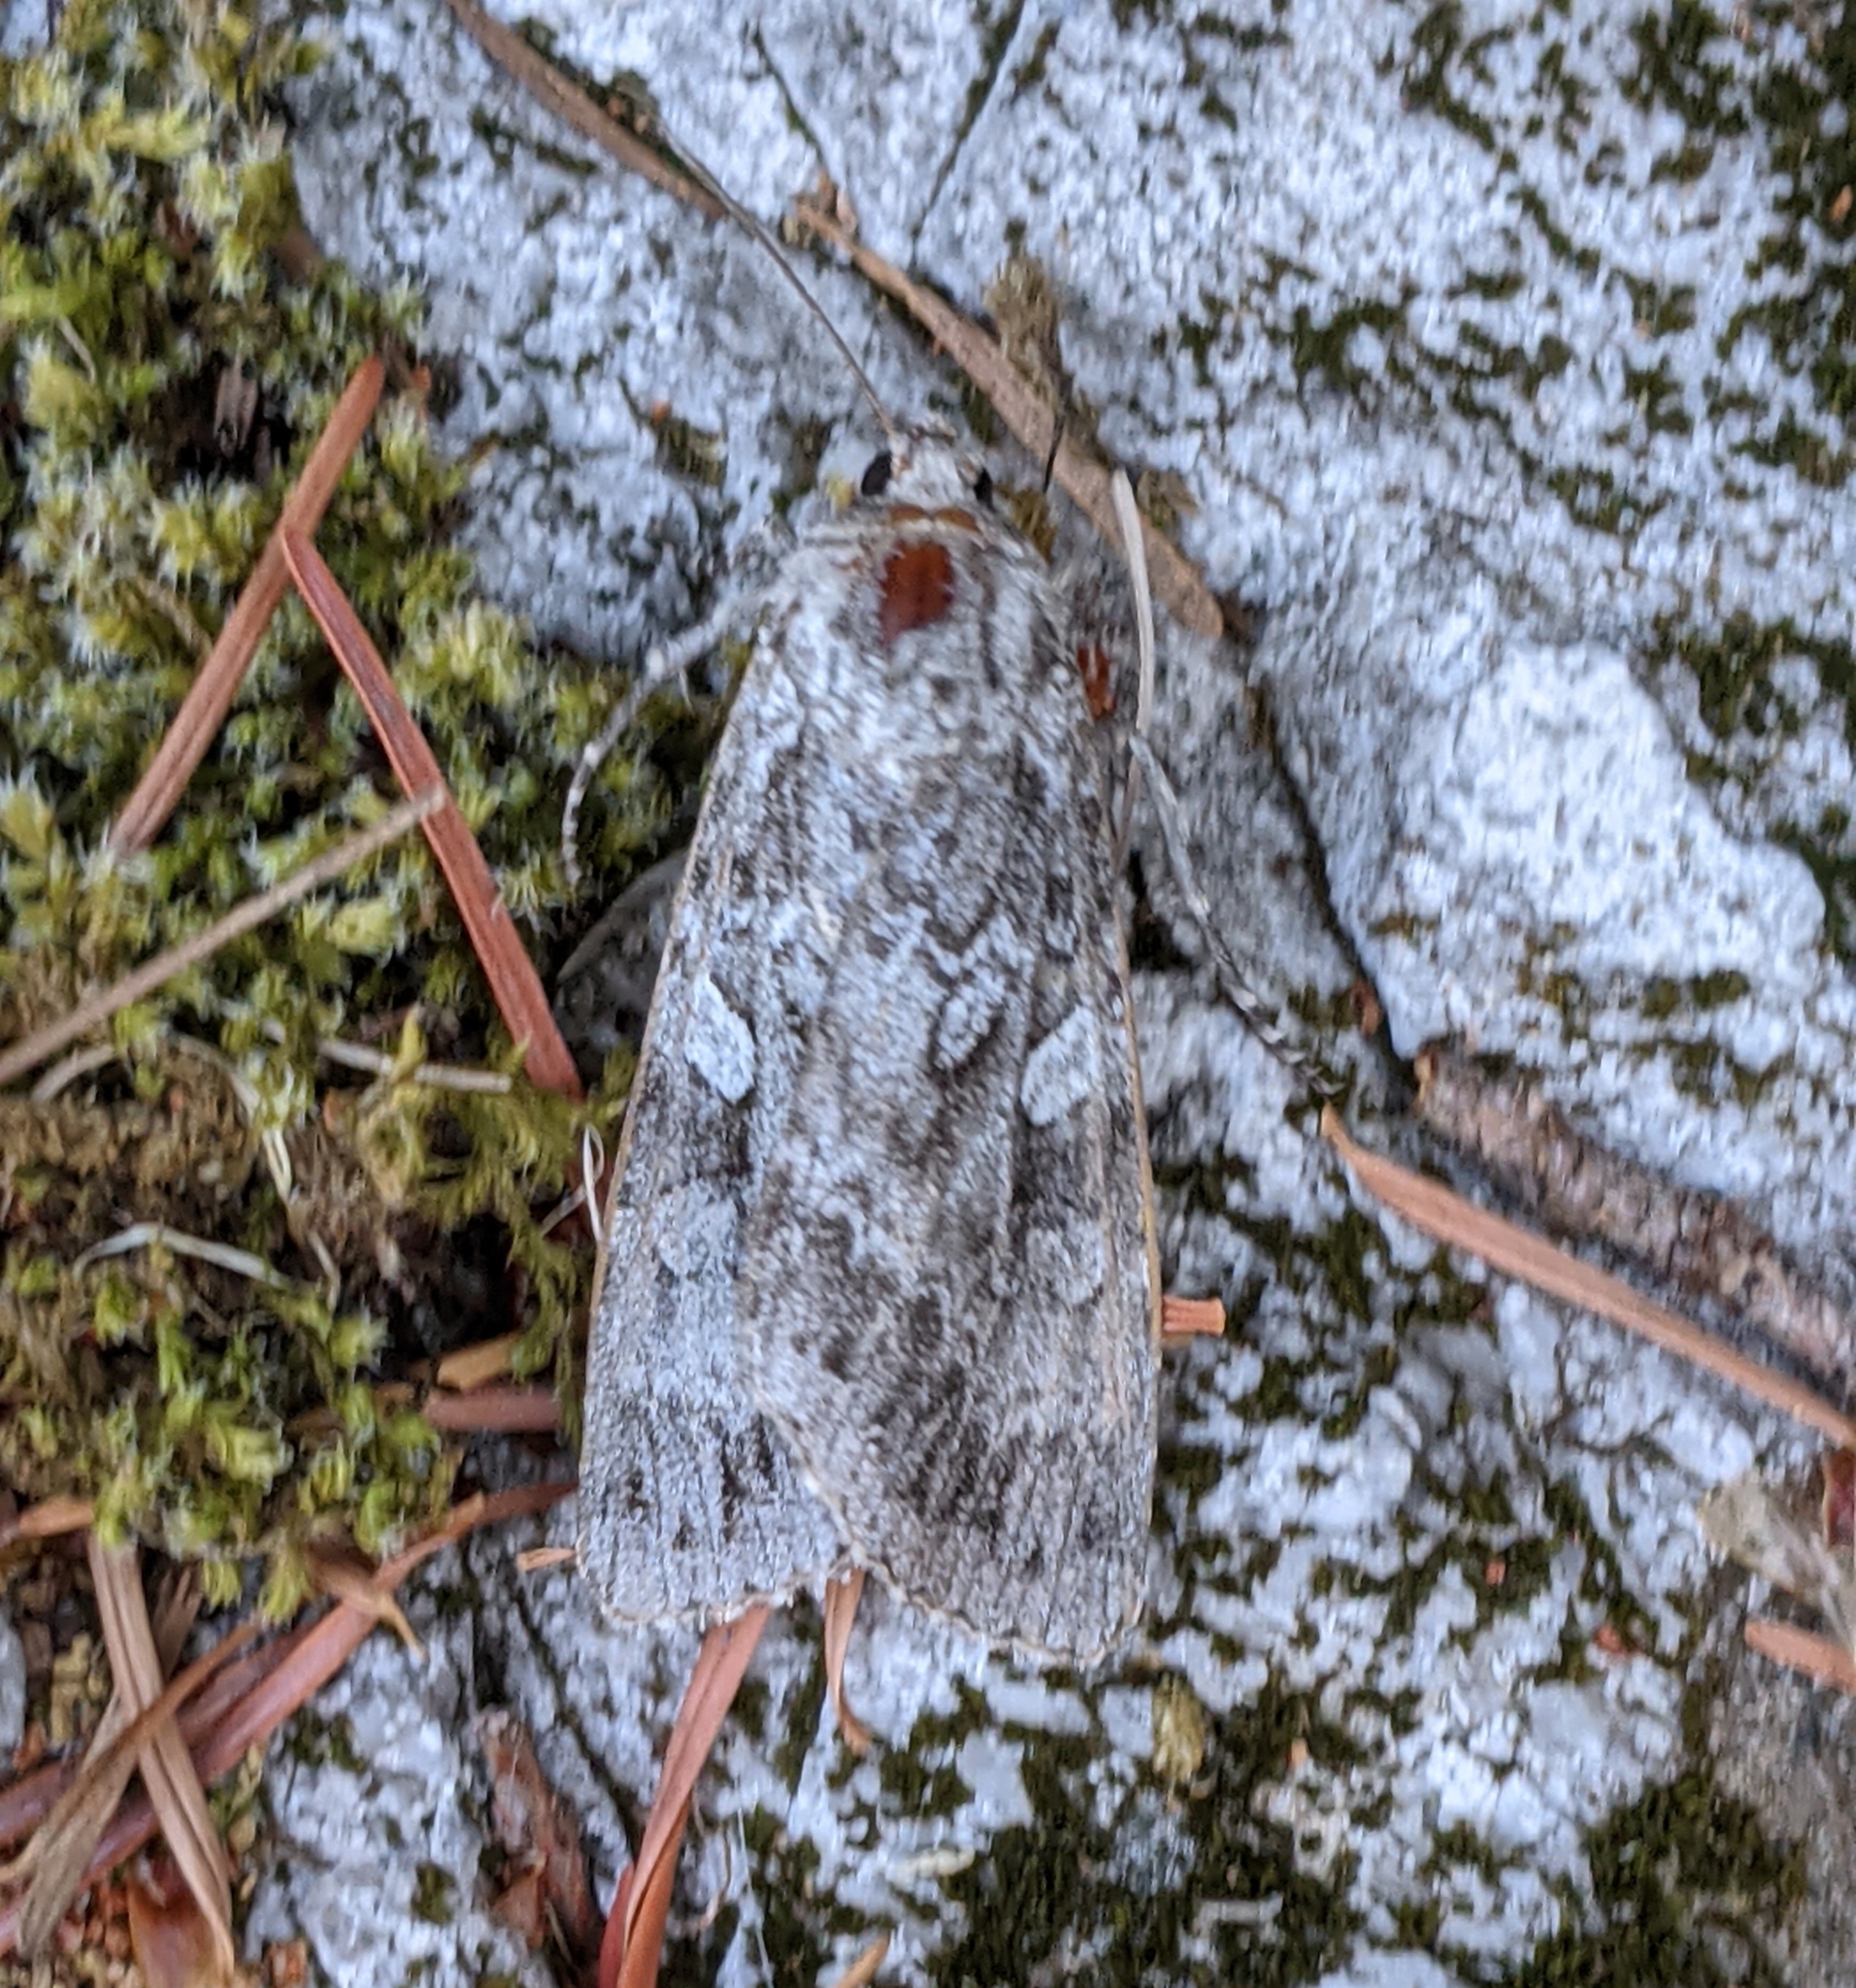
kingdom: Animalia
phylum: Arthropoda
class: Insecta
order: Lepidoptera
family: Noctuidae
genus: Eurois
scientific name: Eurois occulta
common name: Great brocade
